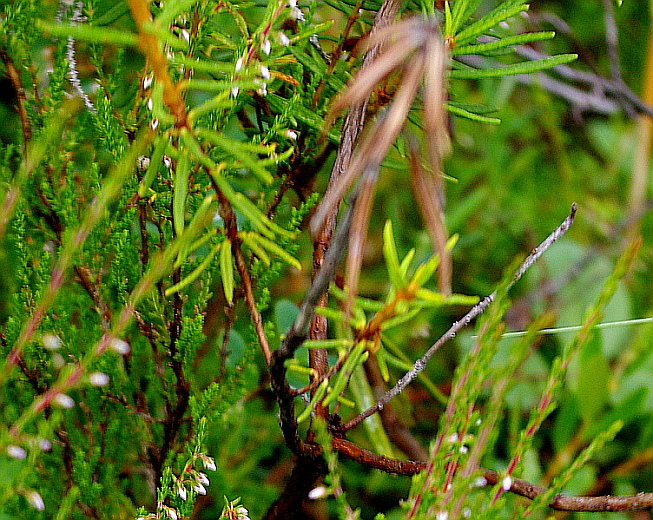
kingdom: Plantae
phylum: Tracheophyta
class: Magnoliopsida
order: Ericales
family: Ericaceae
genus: Rhododendron
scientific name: Rhododendron tomentosum
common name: Marsh labrador tea
